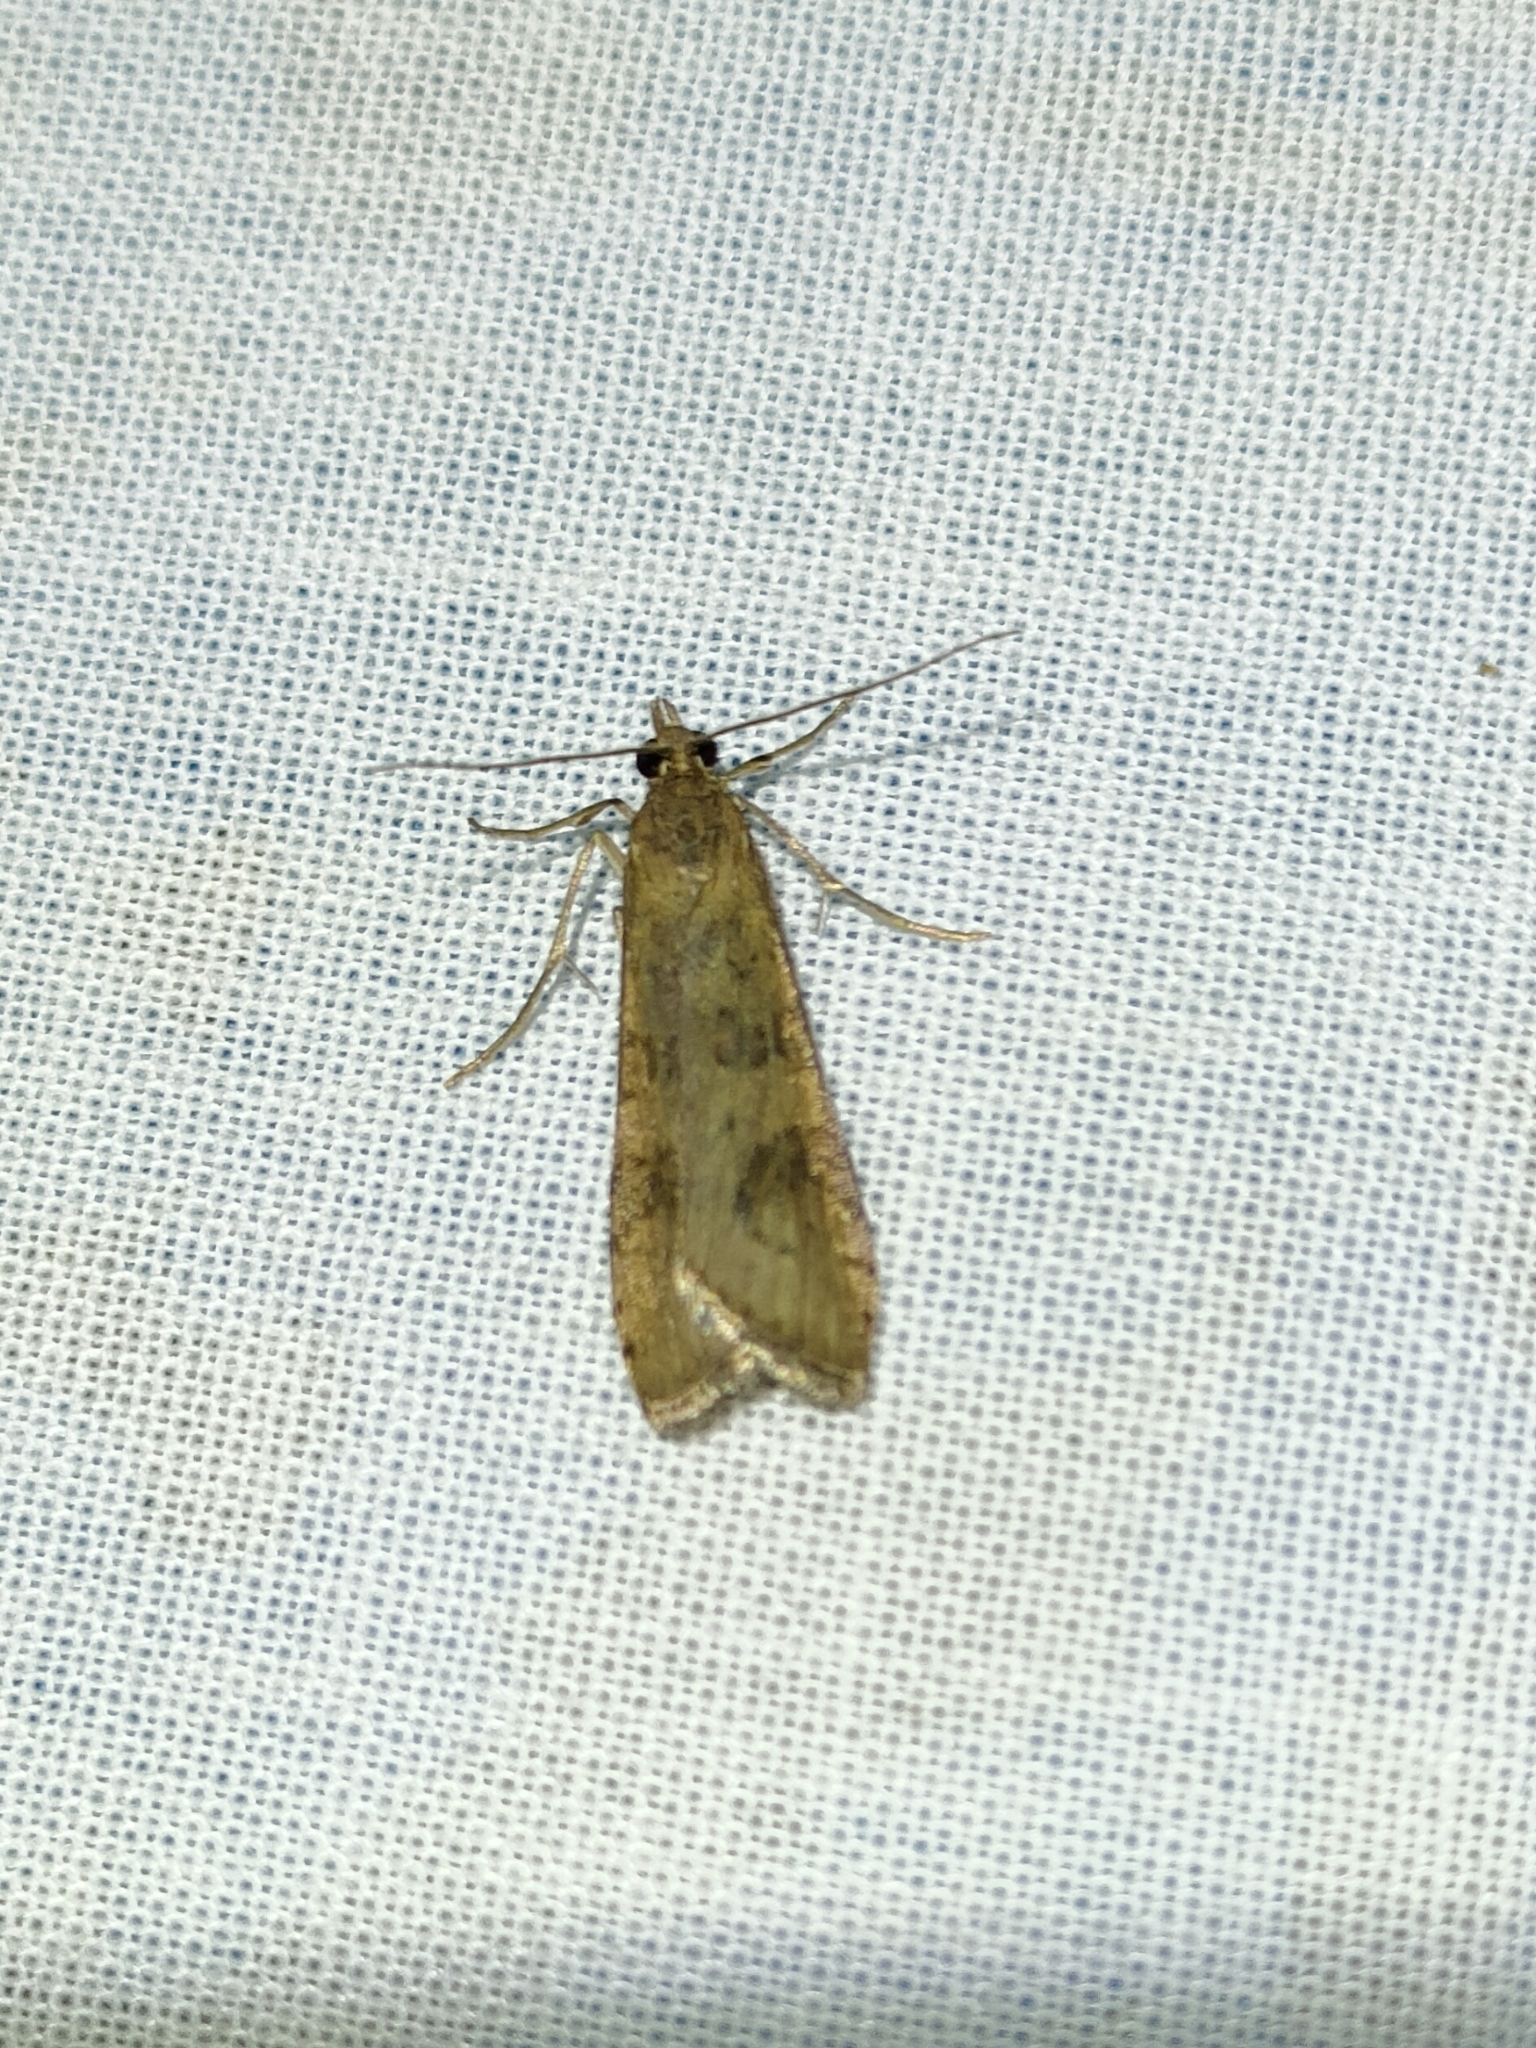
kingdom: Animalia
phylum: Arthropoda
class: Insecta
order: Lepidoptera
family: Crambidae
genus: Nomophila
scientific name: Nomophila noctuella
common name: Rush veneer
